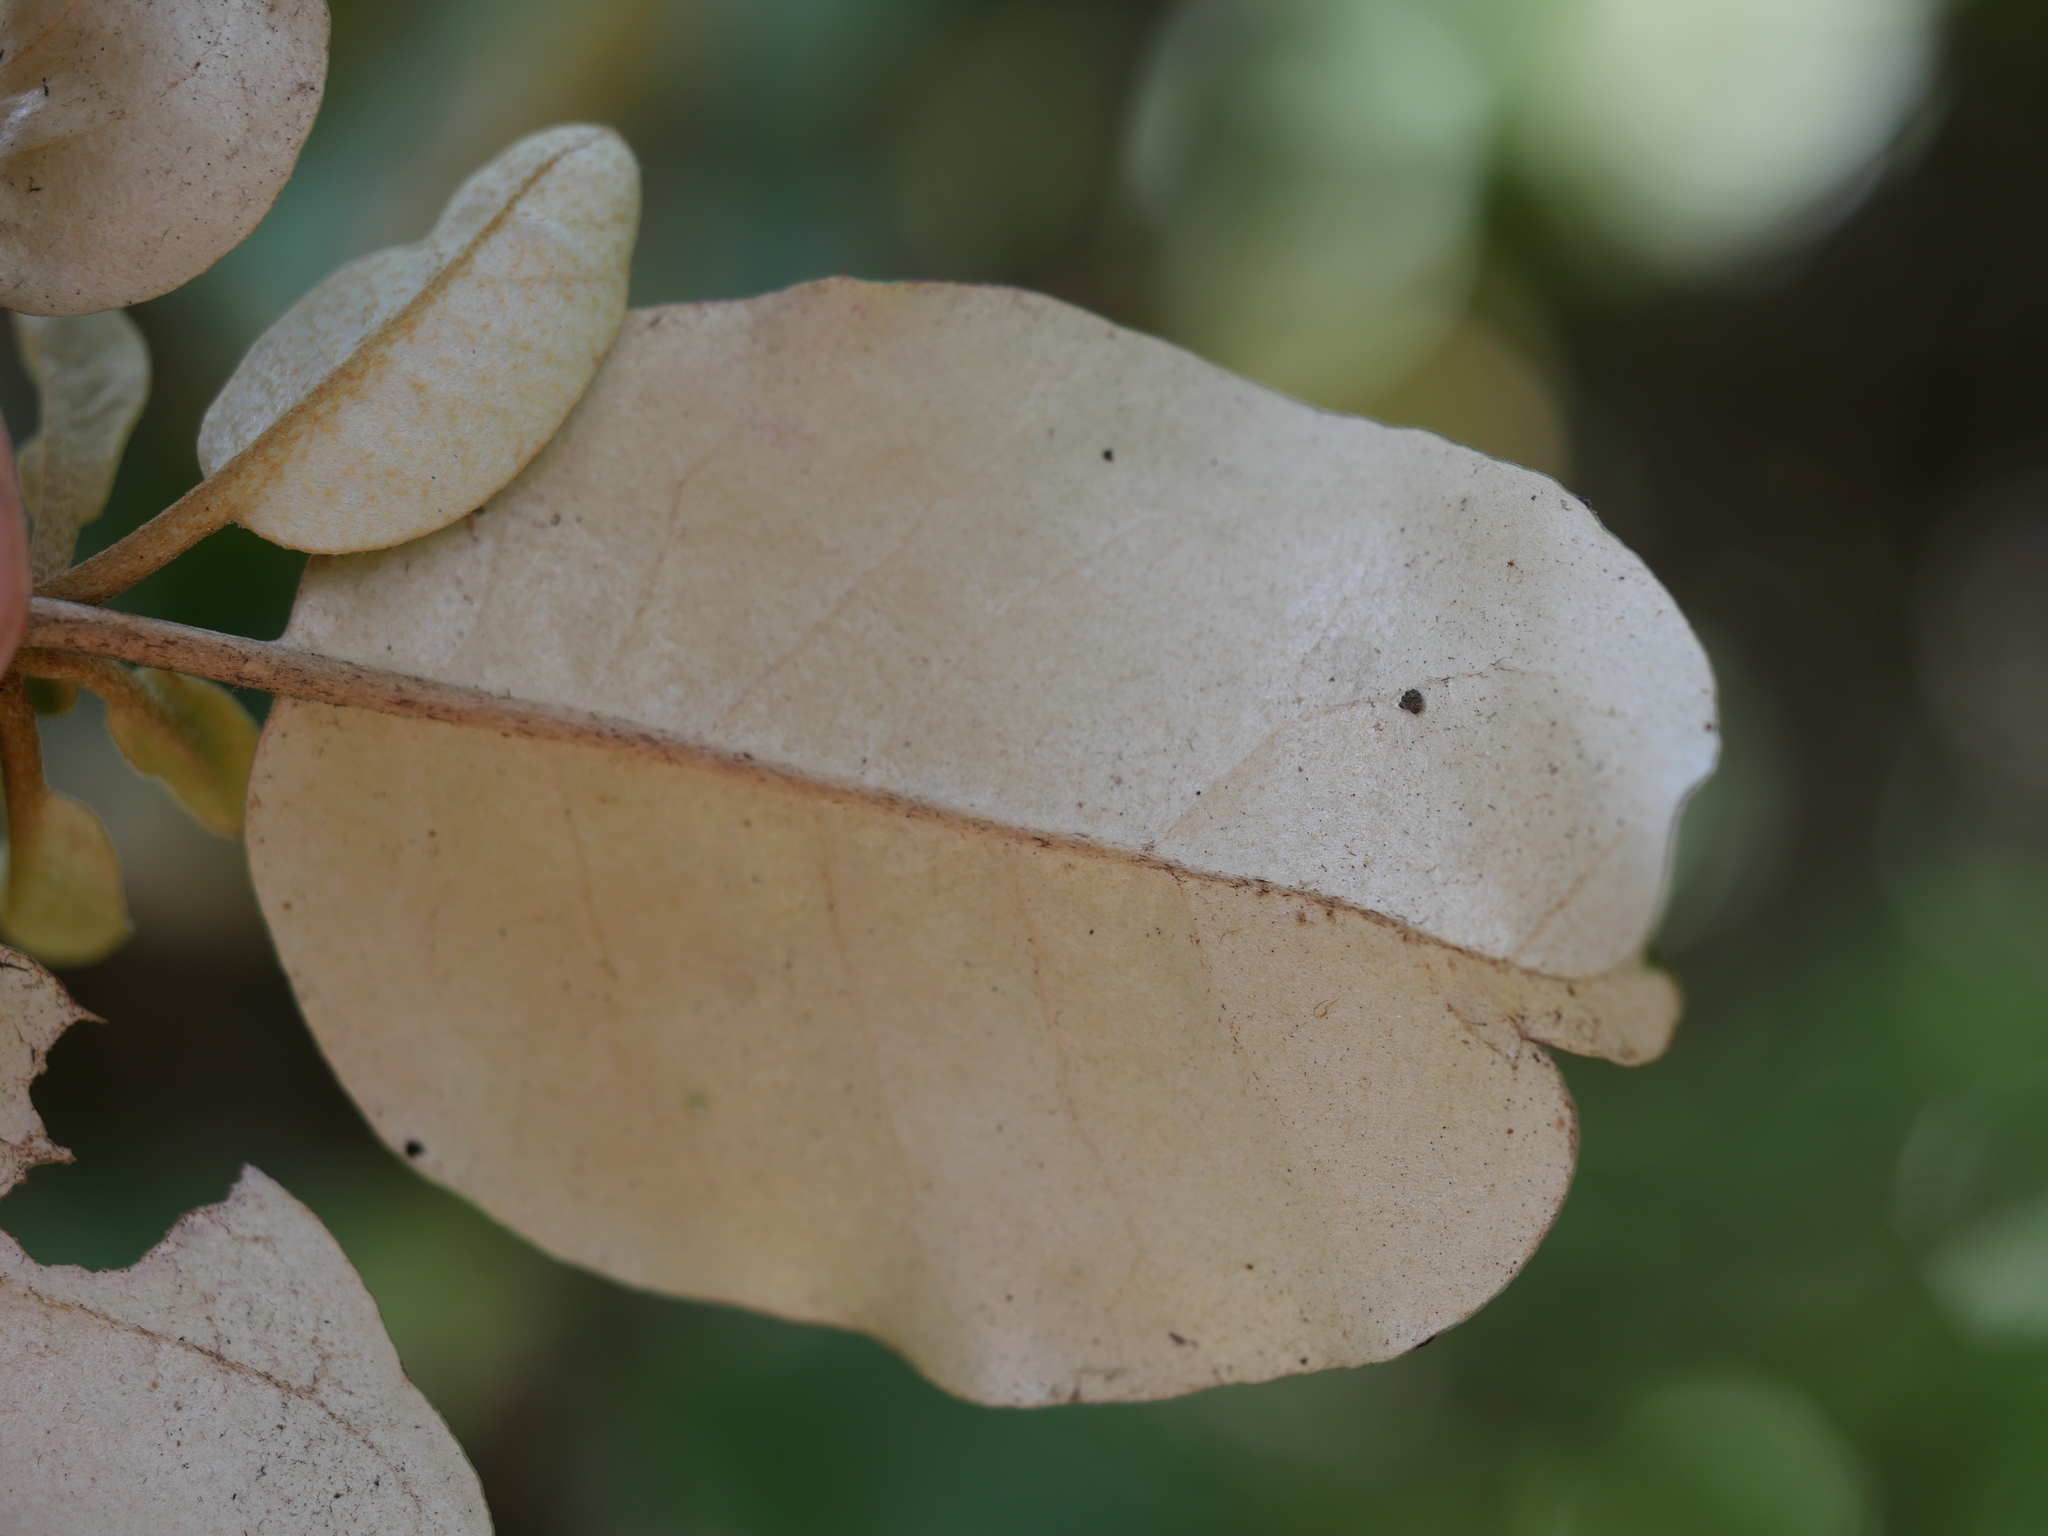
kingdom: Plantae
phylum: Tracheophyta
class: Magnoliopsida
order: Asterales
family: Asteraceae
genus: Olearia
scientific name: Olearia furfuracea
